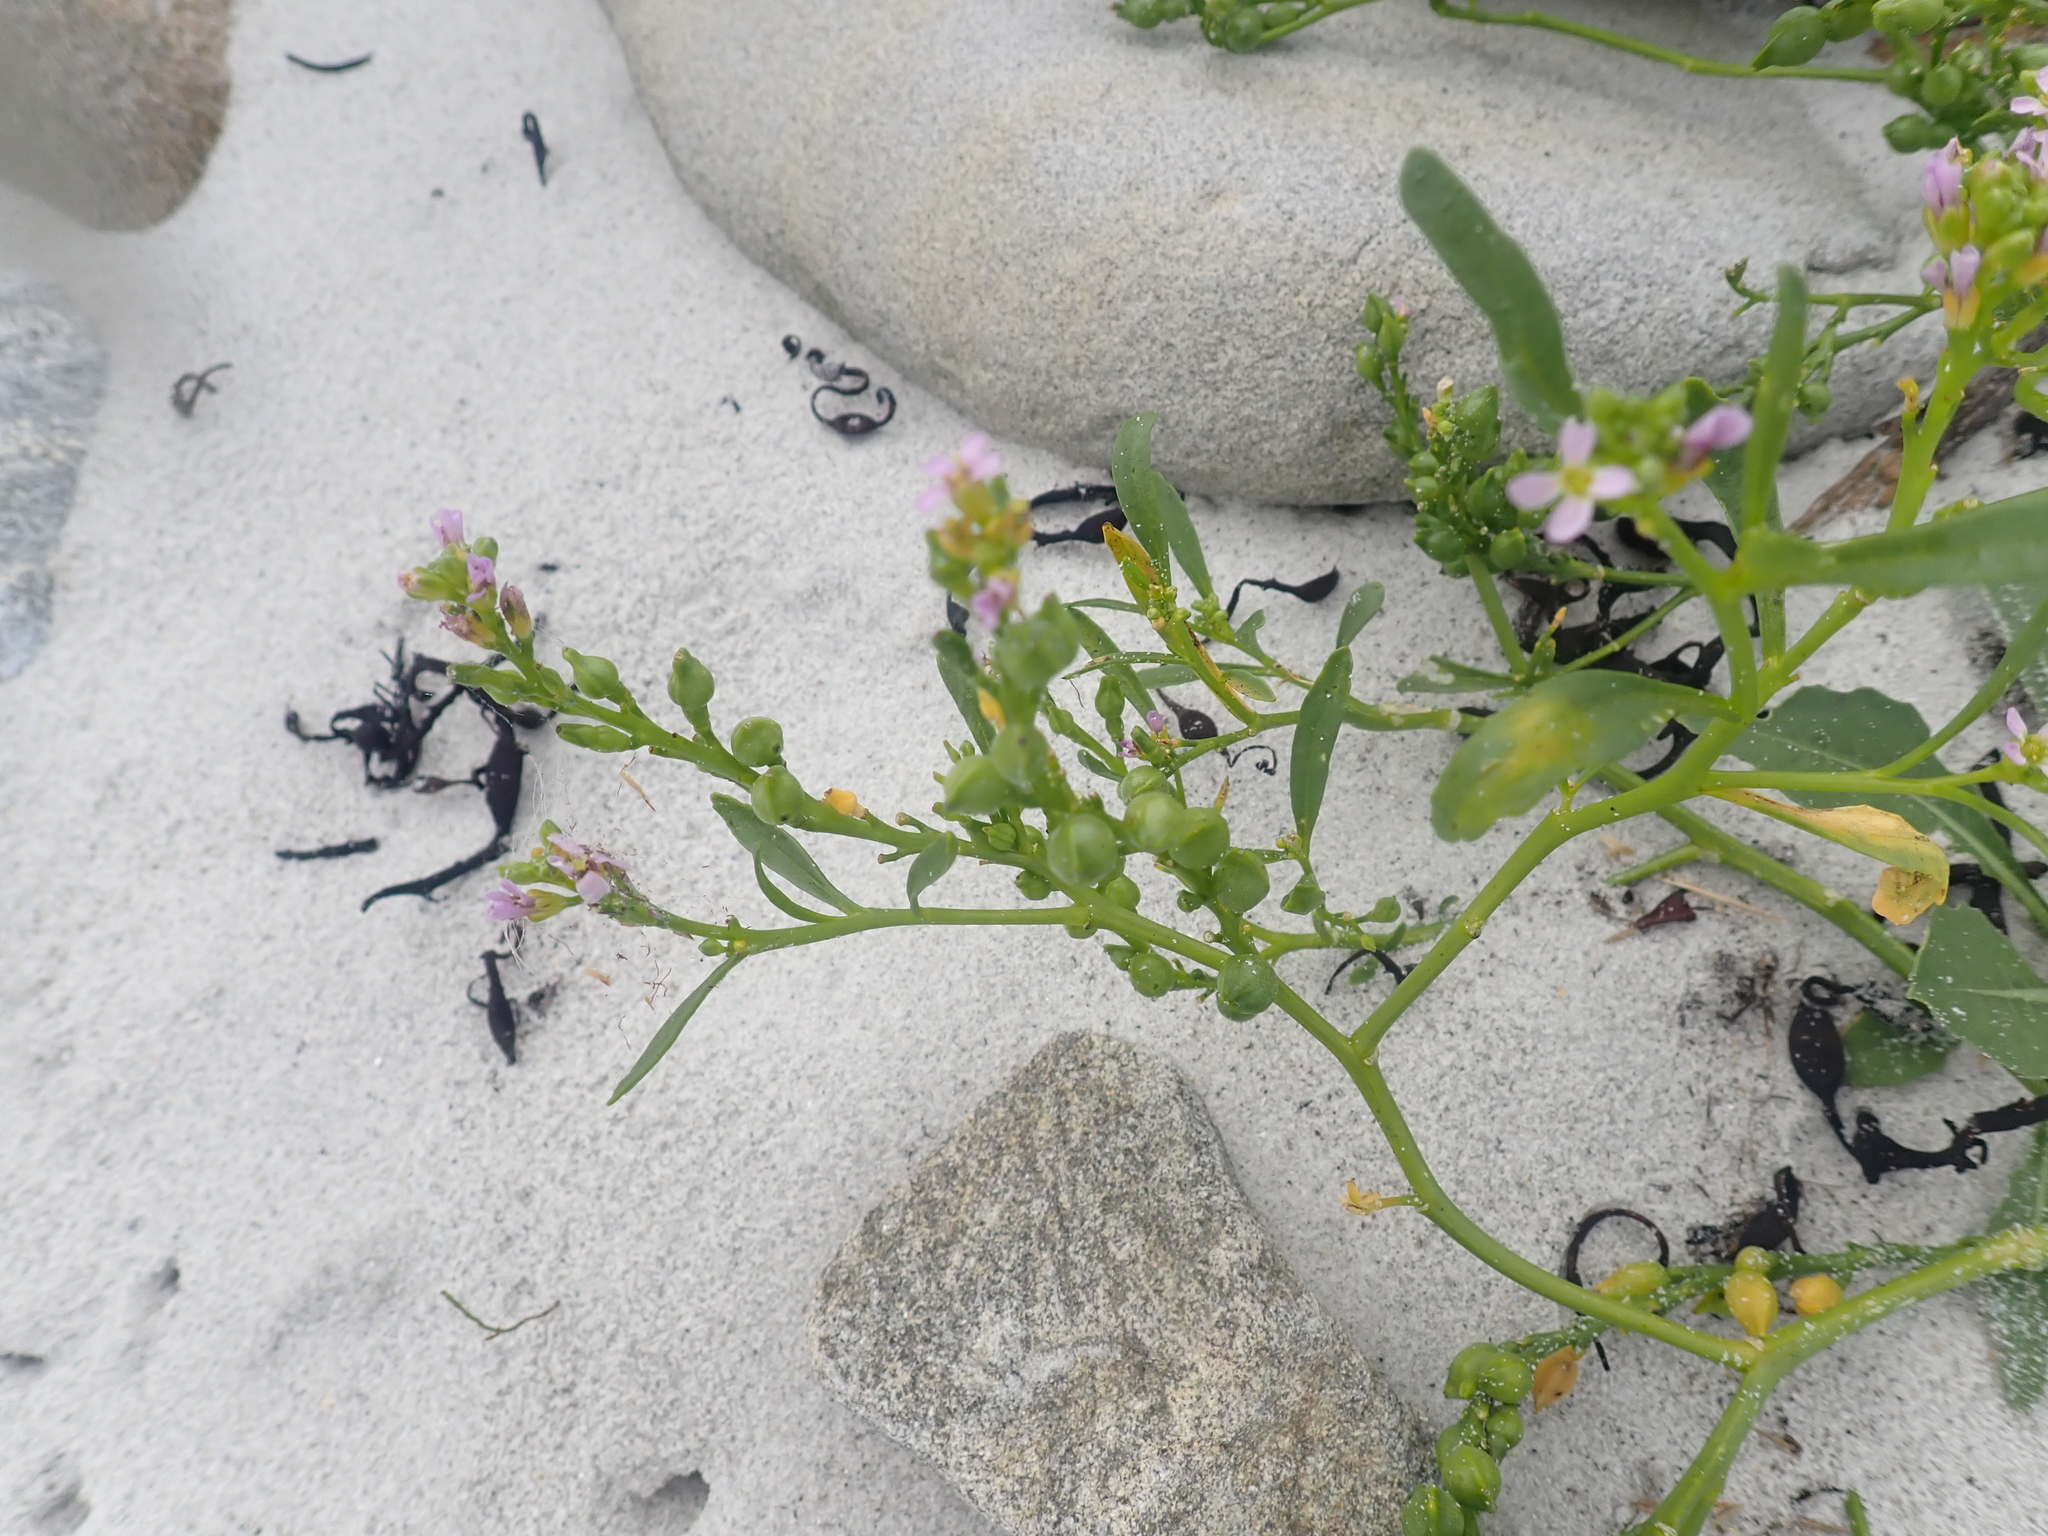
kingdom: Plantae
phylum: Tracheophyta
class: Magnoliopsida
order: Brassicales
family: Brassicaceae
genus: Cakile
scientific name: Cakile edentula
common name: American sea rocket
